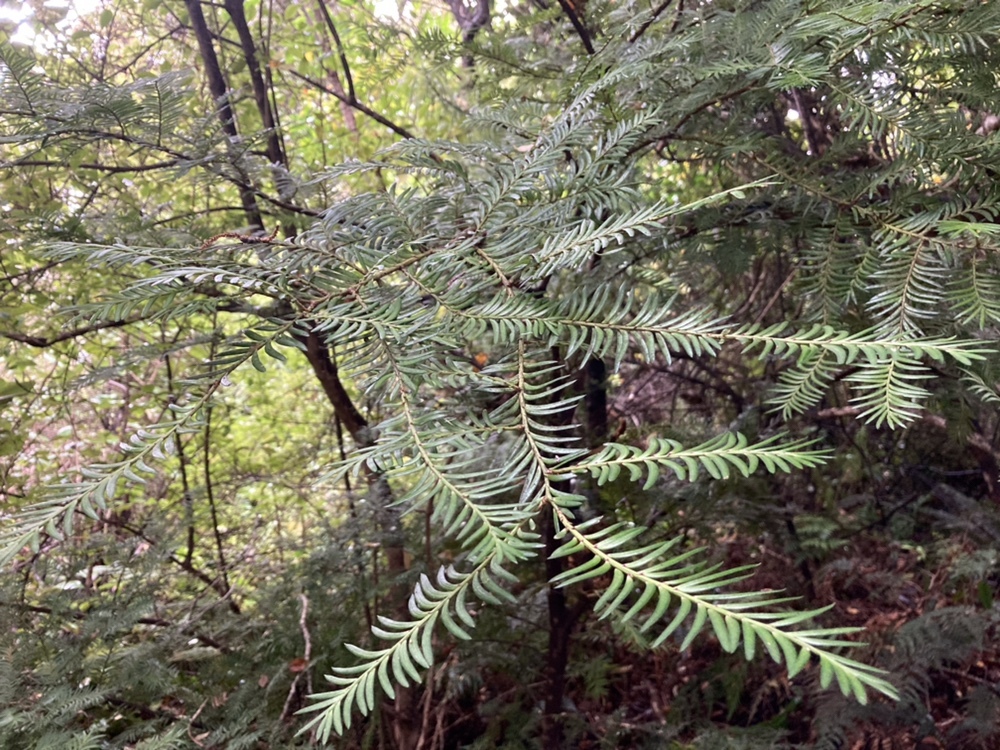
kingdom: Plantae
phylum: Tracheophyta
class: Pinopsida
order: Pinales
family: Podocarpaceae
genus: Prumnopitys
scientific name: Prumnopitys ferruginea
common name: Brown pine
